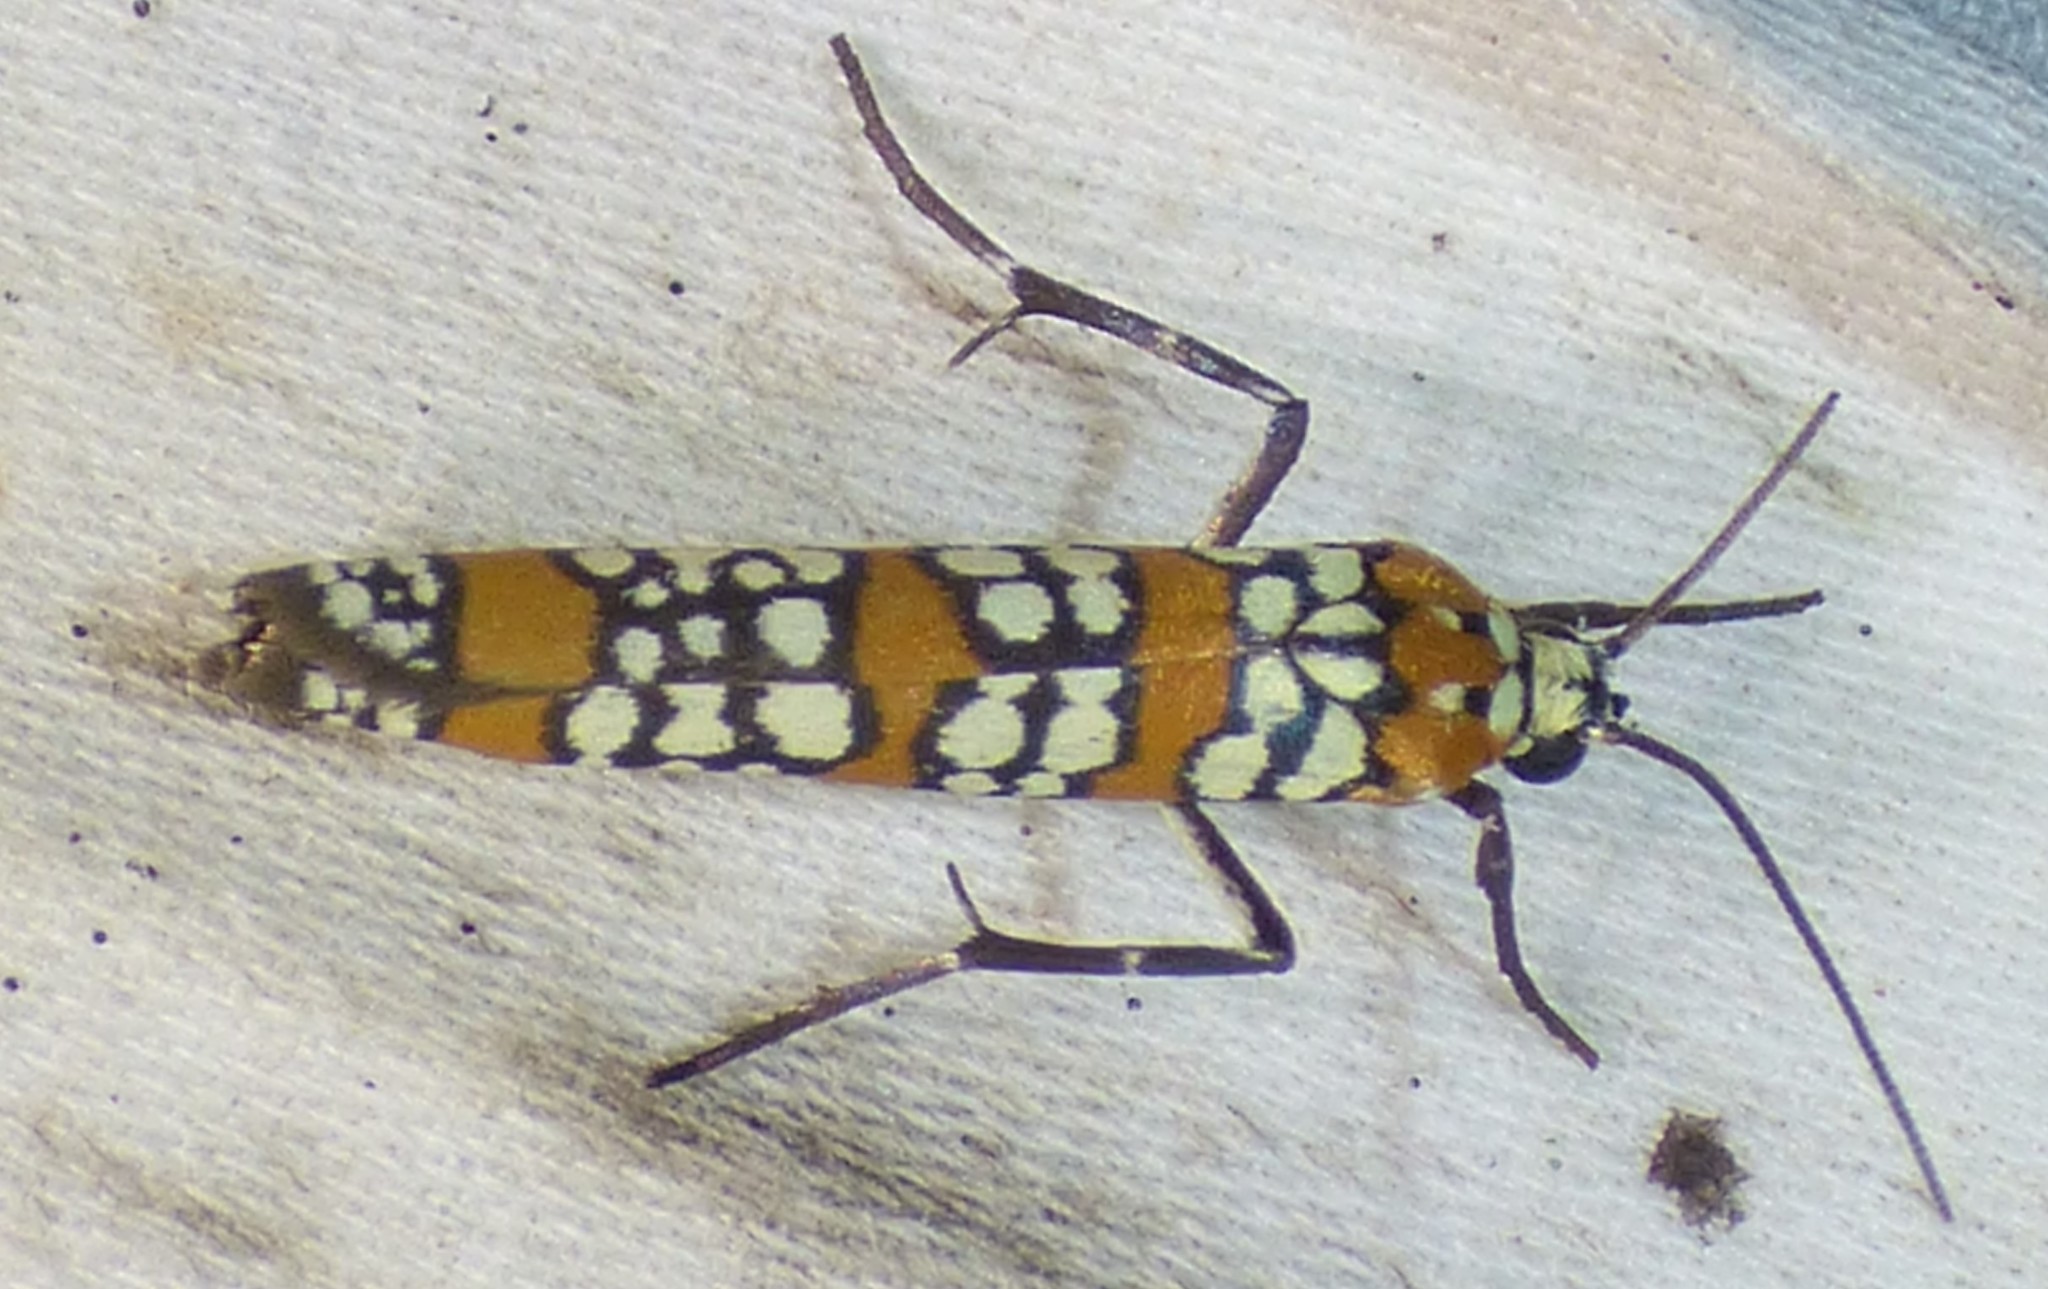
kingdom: Animalia
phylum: Arthropoda
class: Insecta
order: Lepidoptera
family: Attevidae
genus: Atteva
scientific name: Atteva punctella
